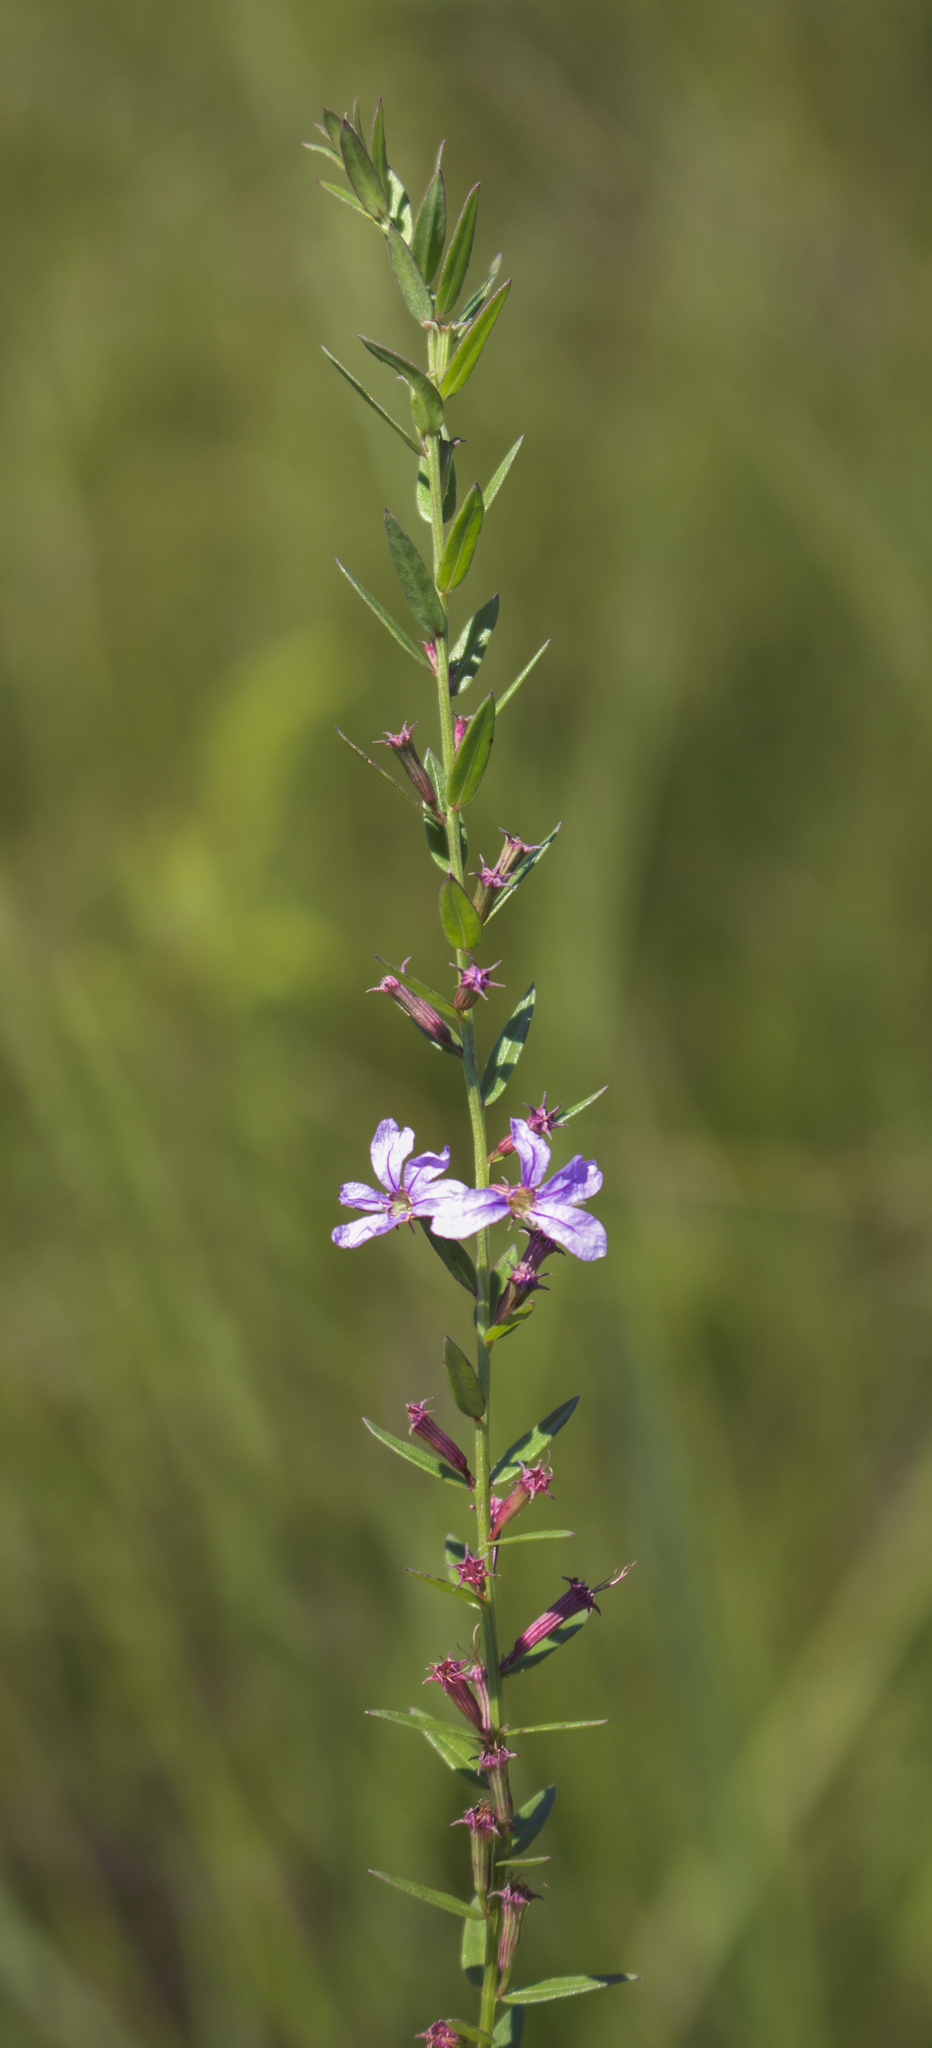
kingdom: Plantae
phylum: Tracheophyta
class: Magnoliopsida
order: Myrtales
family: Lythraceae
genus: Lythrum
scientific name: Lythrum alatum
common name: Winged loosestrife
